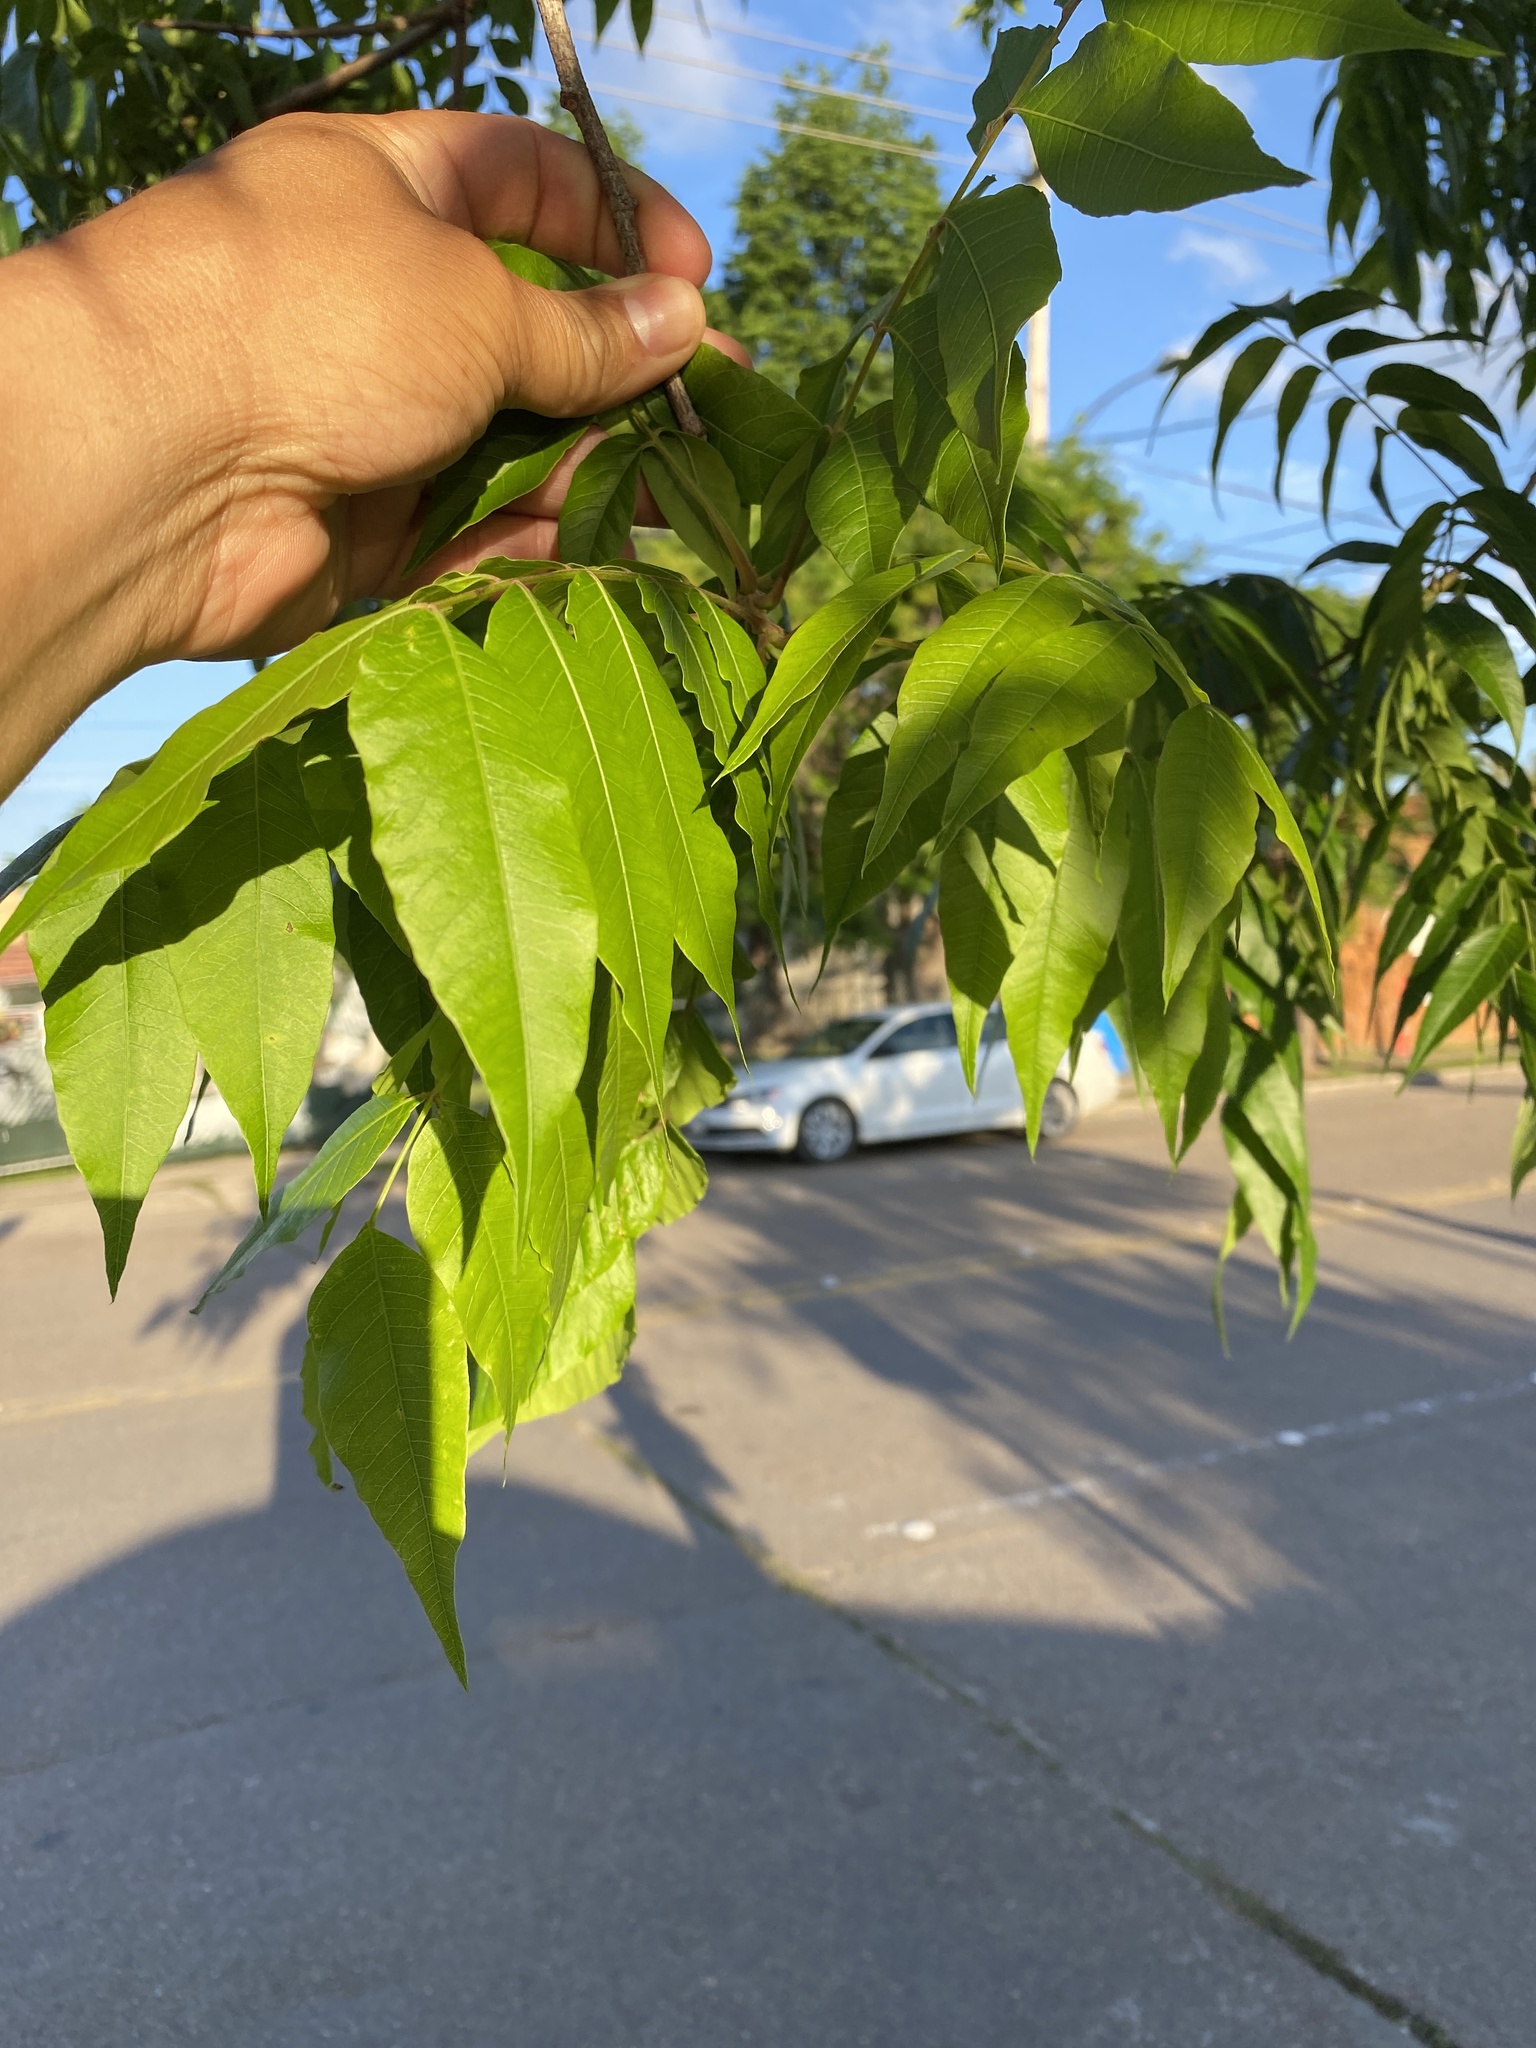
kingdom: Plantae
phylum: Tracheophyta
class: Magnoliopsida
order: Sapindales
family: Anacardiaceae
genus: Pistacia
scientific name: Pistacia chinensis
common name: Chinese pistache
